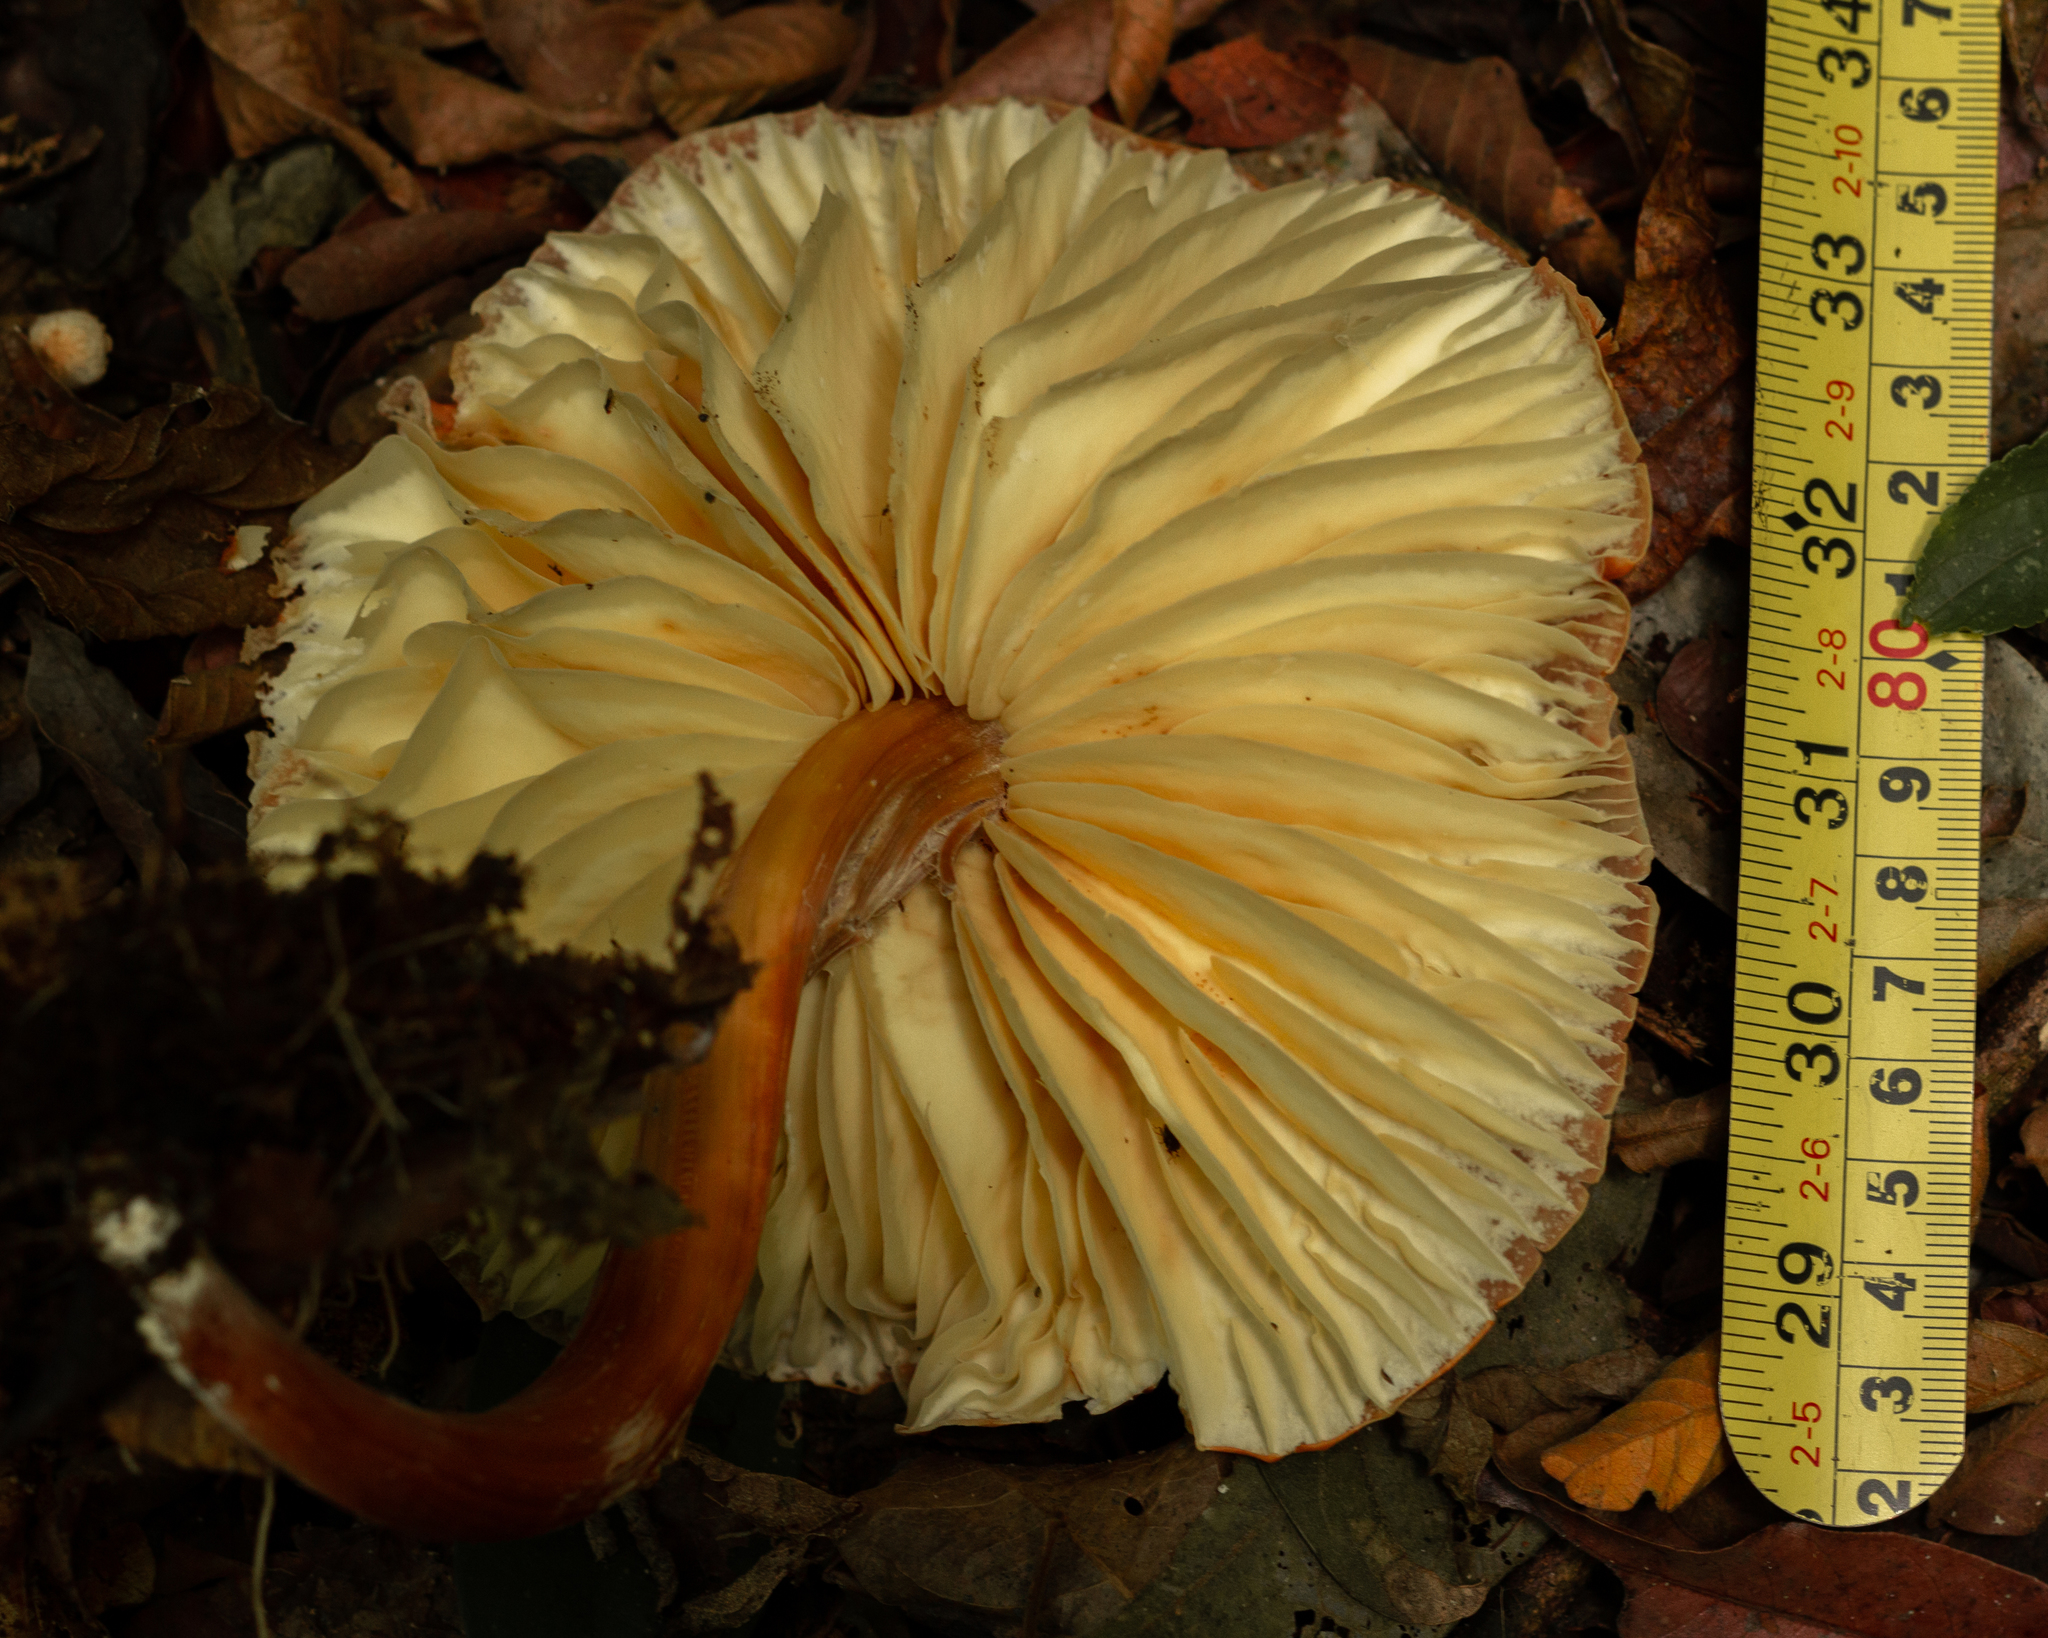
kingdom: Fungi
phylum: Basidiomycota
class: Agaricomycetes
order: Agaricales
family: Marasmiaceae
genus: Marasmius
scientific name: Marasmius magnus
